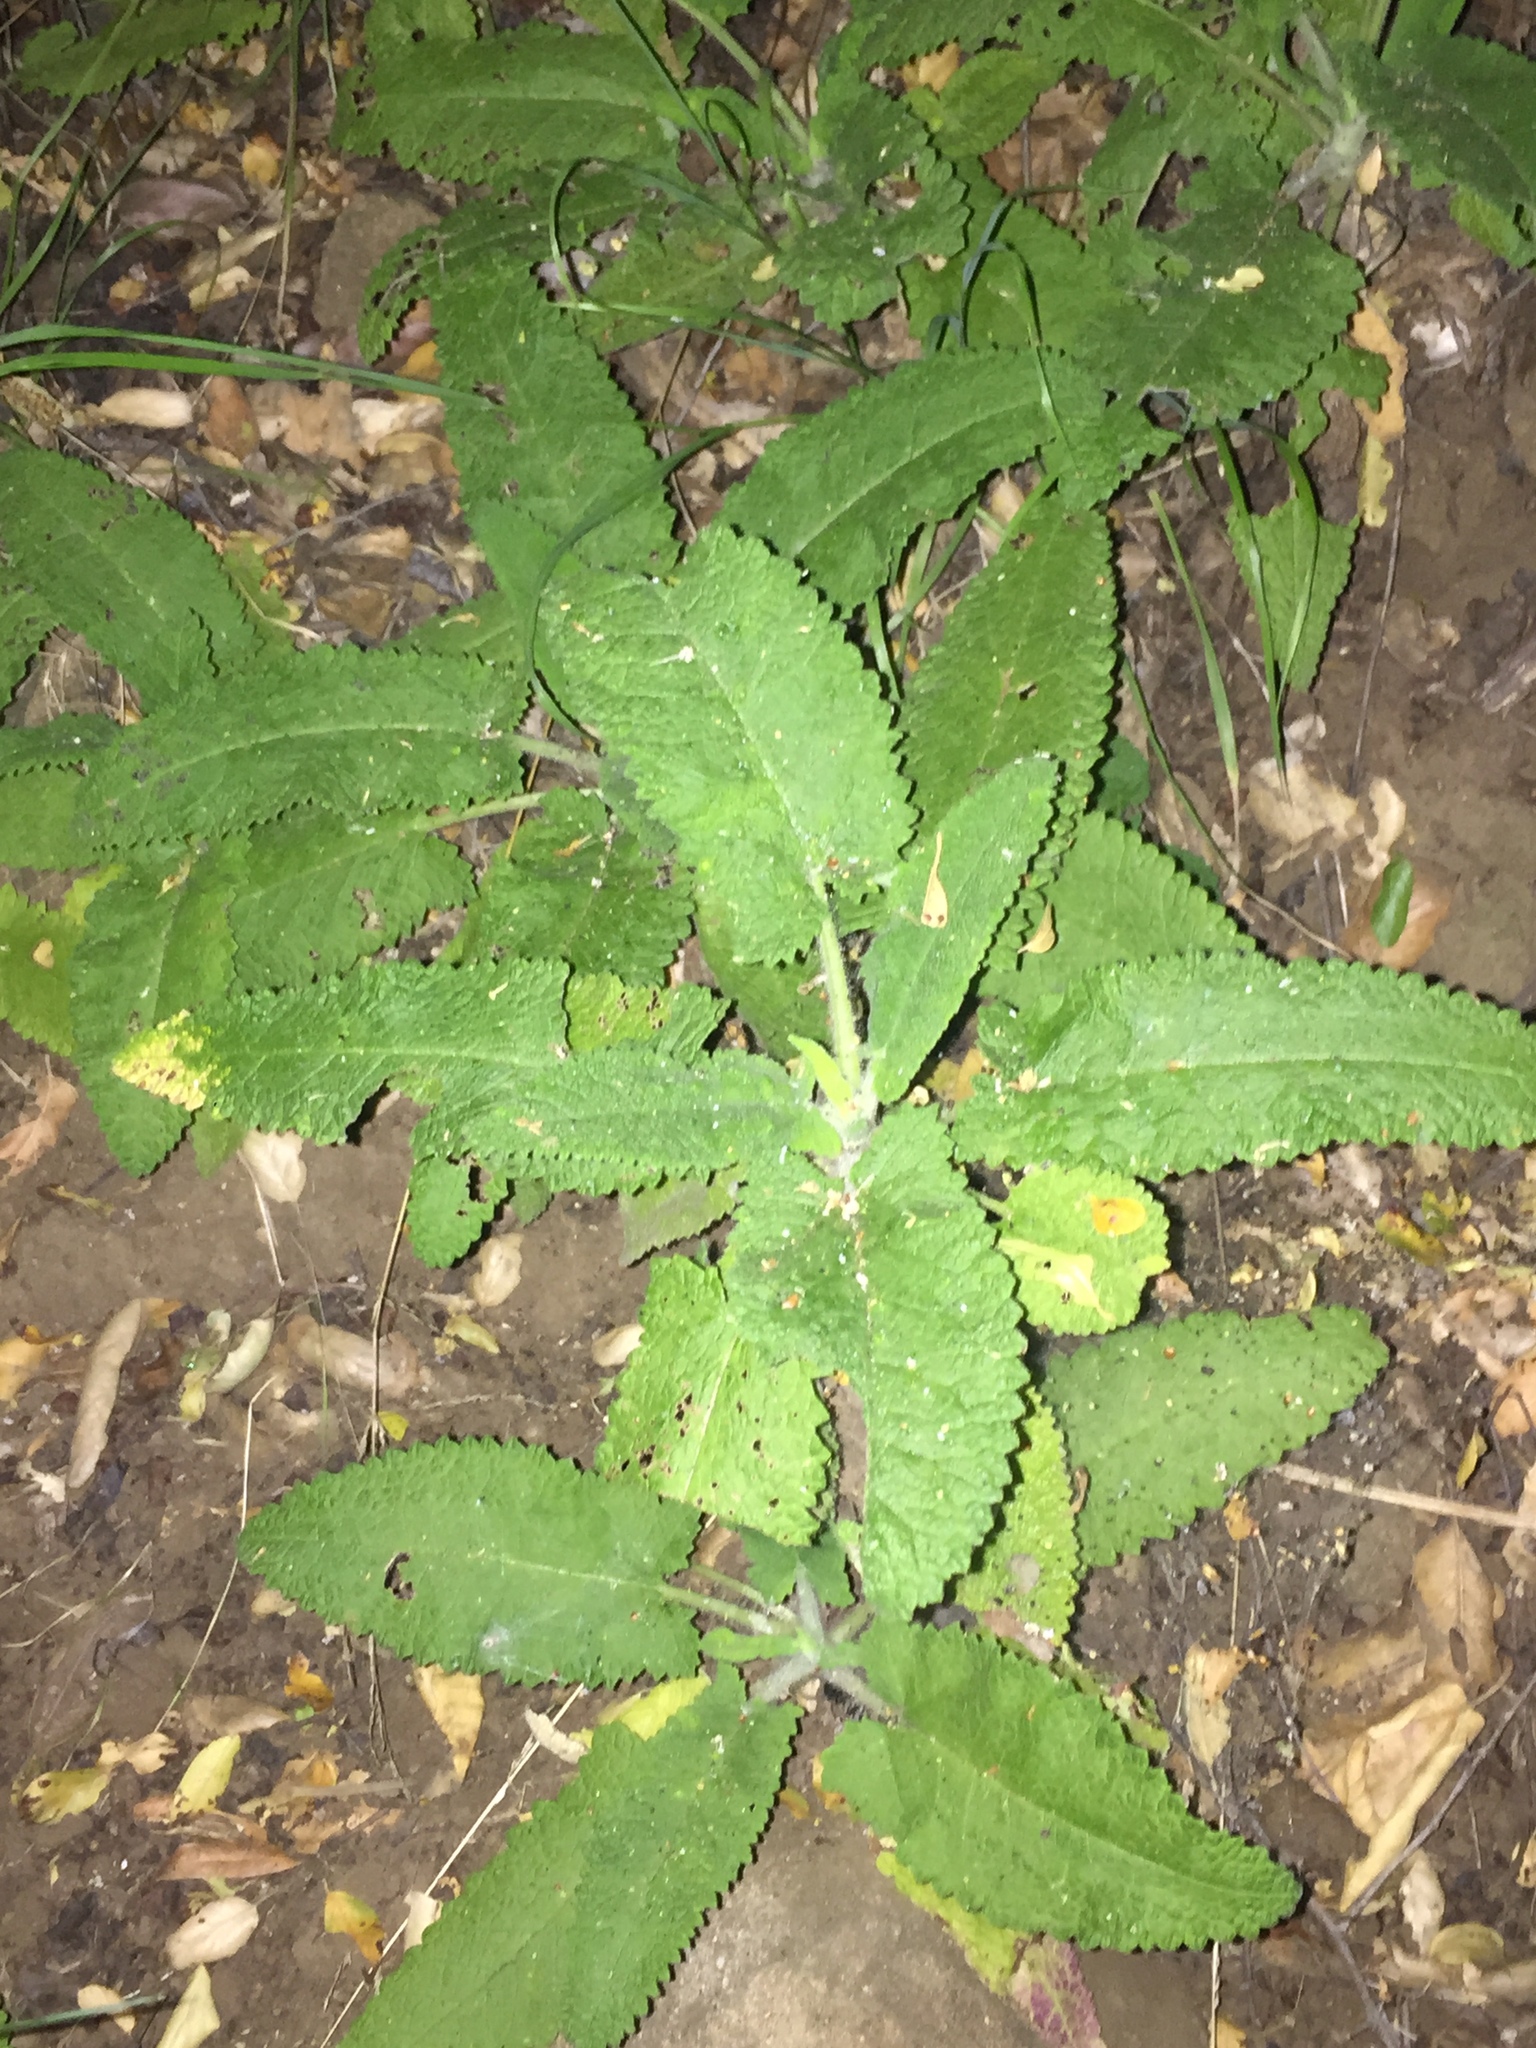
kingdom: Plantae
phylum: Tracheophyta
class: Magnoliopsida
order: Lamiales
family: Lamiaceae
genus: Salvia
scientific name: Salvia spathacea
